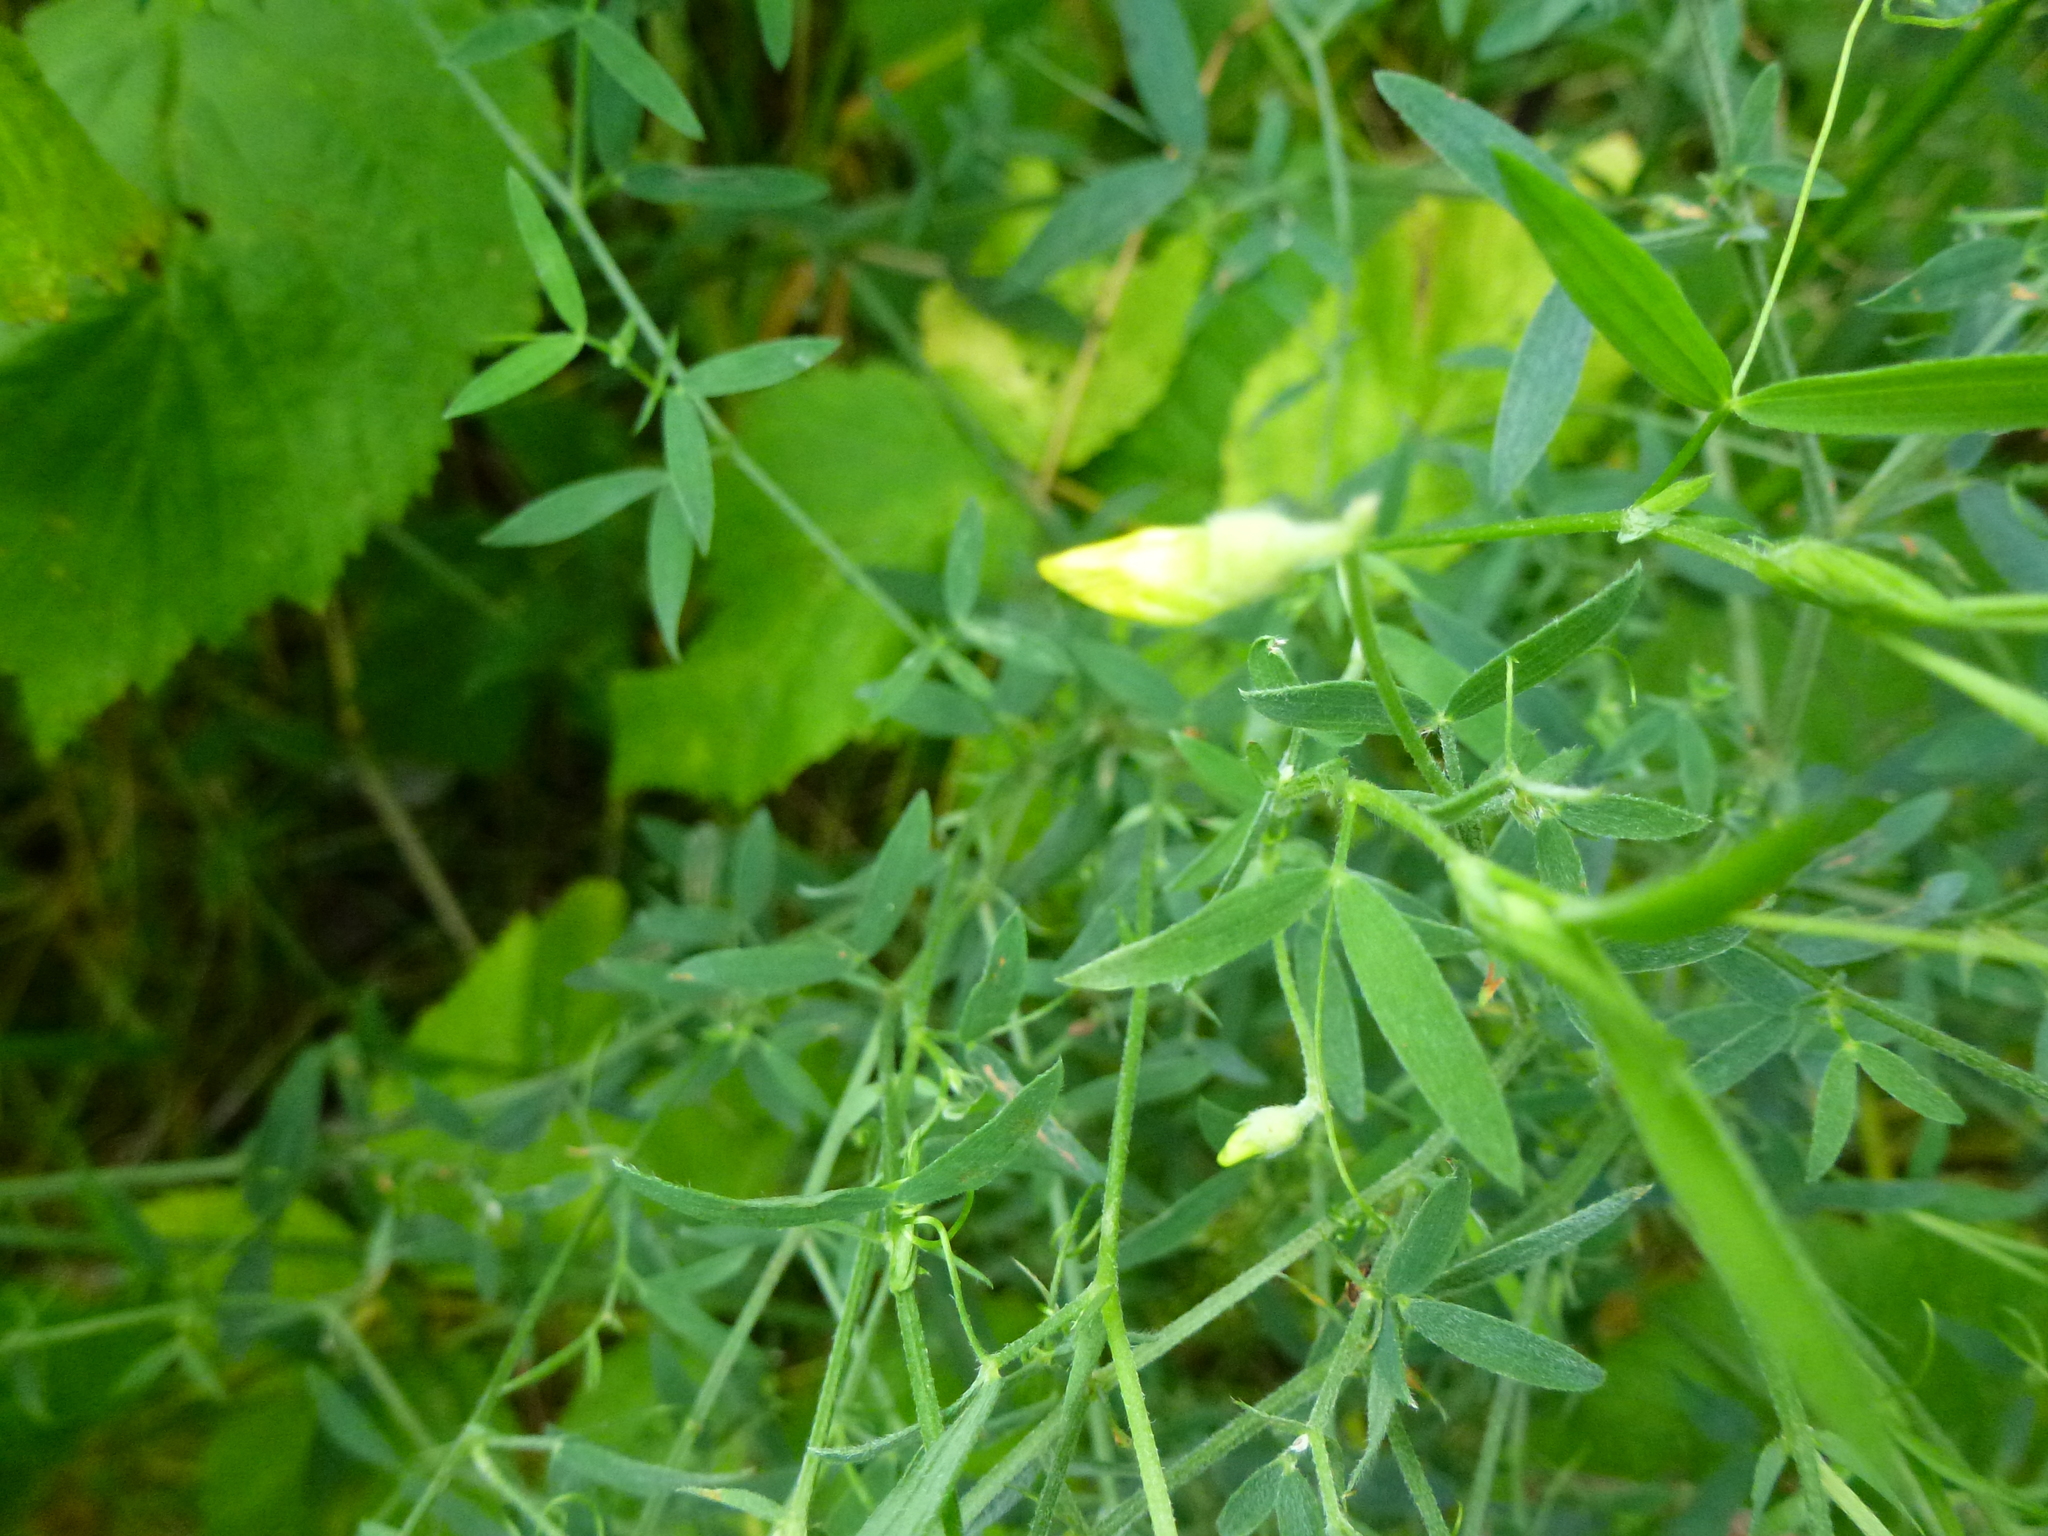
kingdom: Plantae
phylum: Tracheophyta
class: Magnoliopsida
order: Fabales
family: Fabaceae
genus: Lathyrus
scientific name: Lathyrus pratensis
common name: Meadow vetchling
